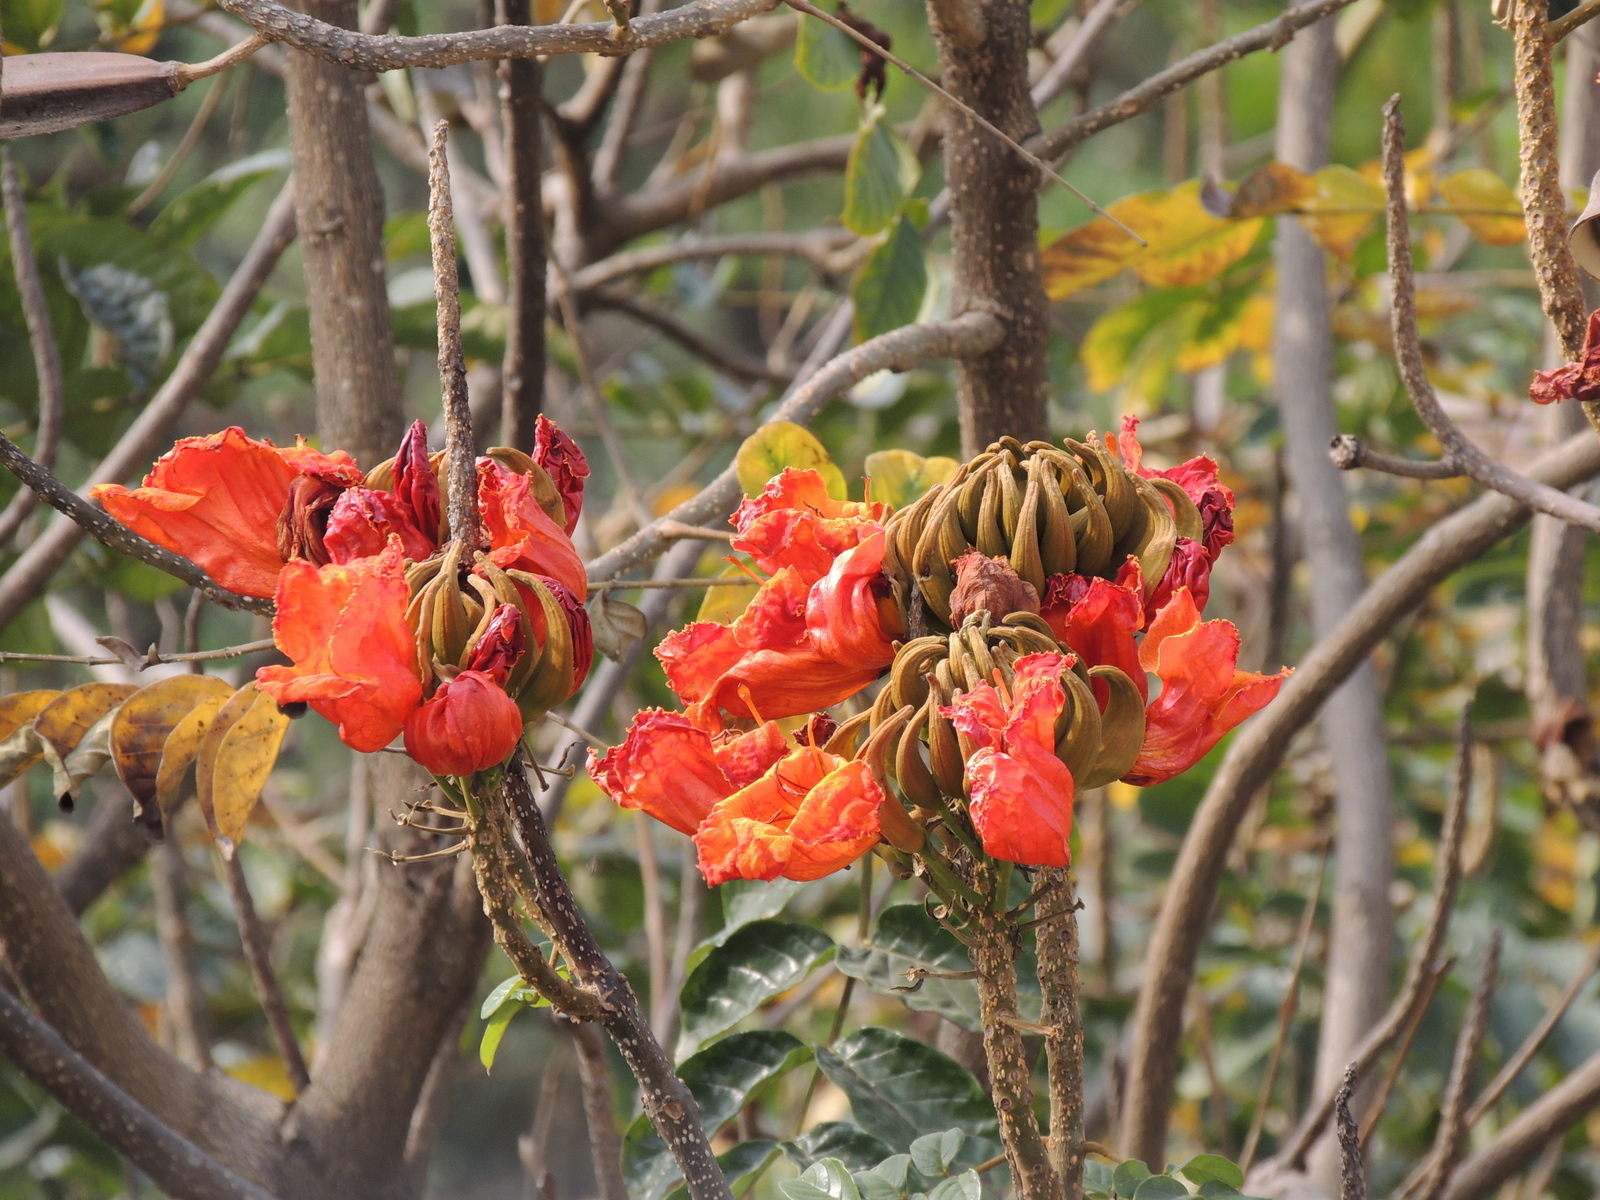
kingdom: Plantae
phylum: Tracheophyta
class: Magnoliopsida
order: Lamiales
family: Bignoniaceae
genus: Spathodea
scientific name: Spathodea campanulata
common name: African tuliptree
